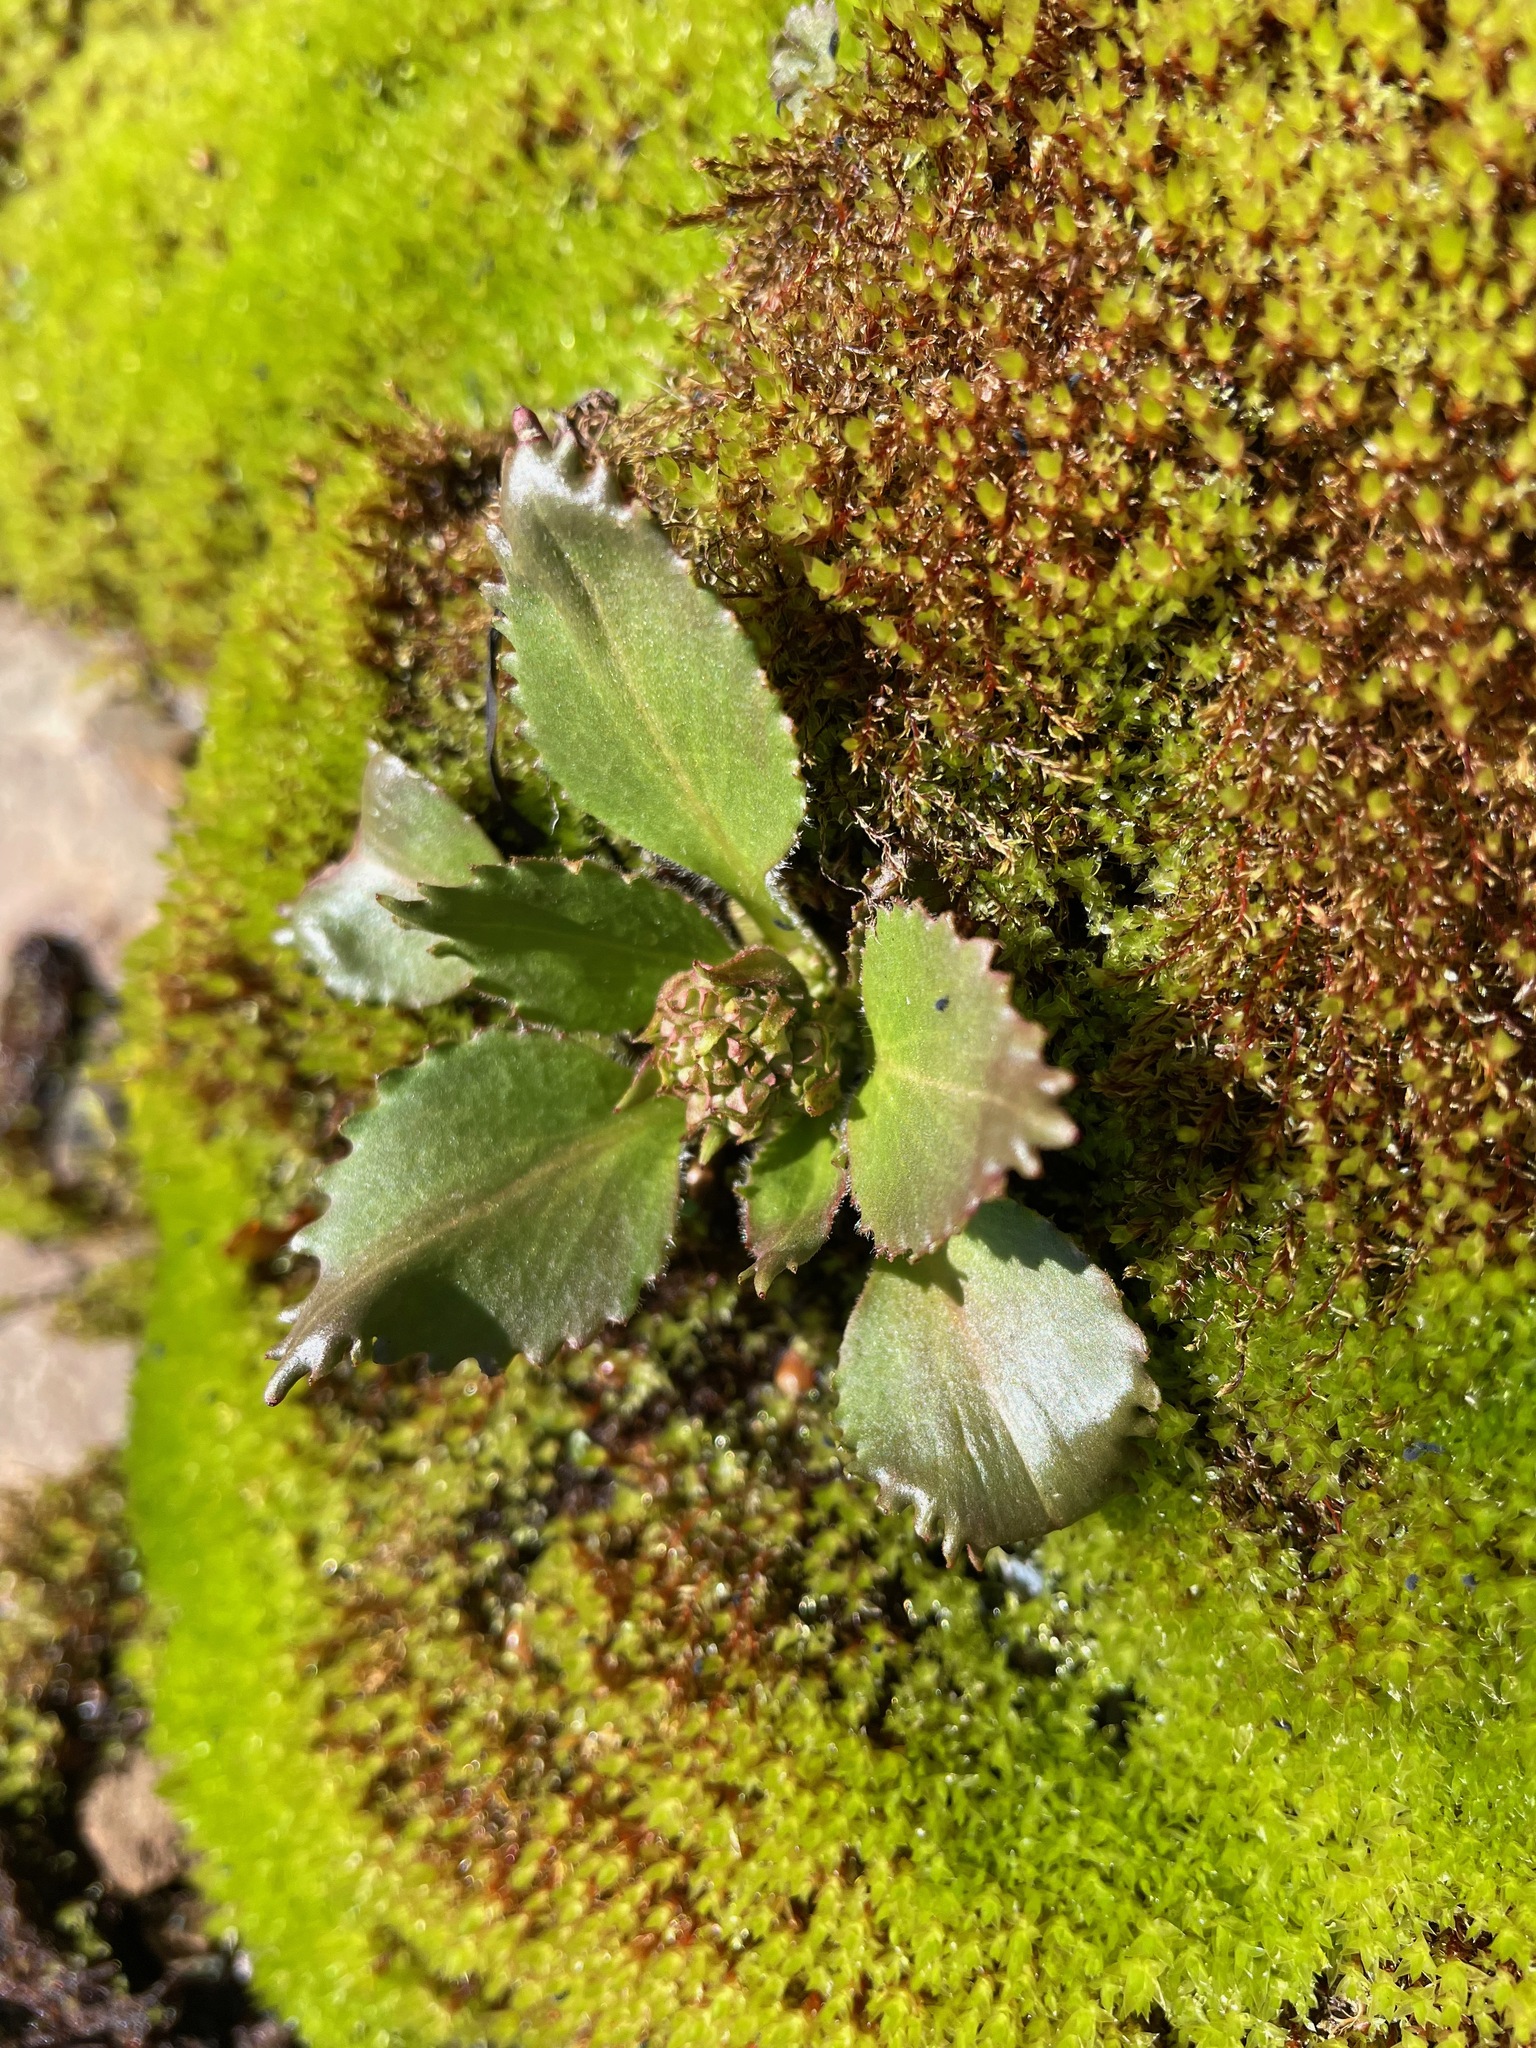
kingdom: Plantae
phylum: Tracheophyta
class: Magnoliopsida
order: Saxifragales
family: Saxifragaceae
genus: Micranthes
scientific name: Micranthes virginiensis
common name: Early saxifrage
